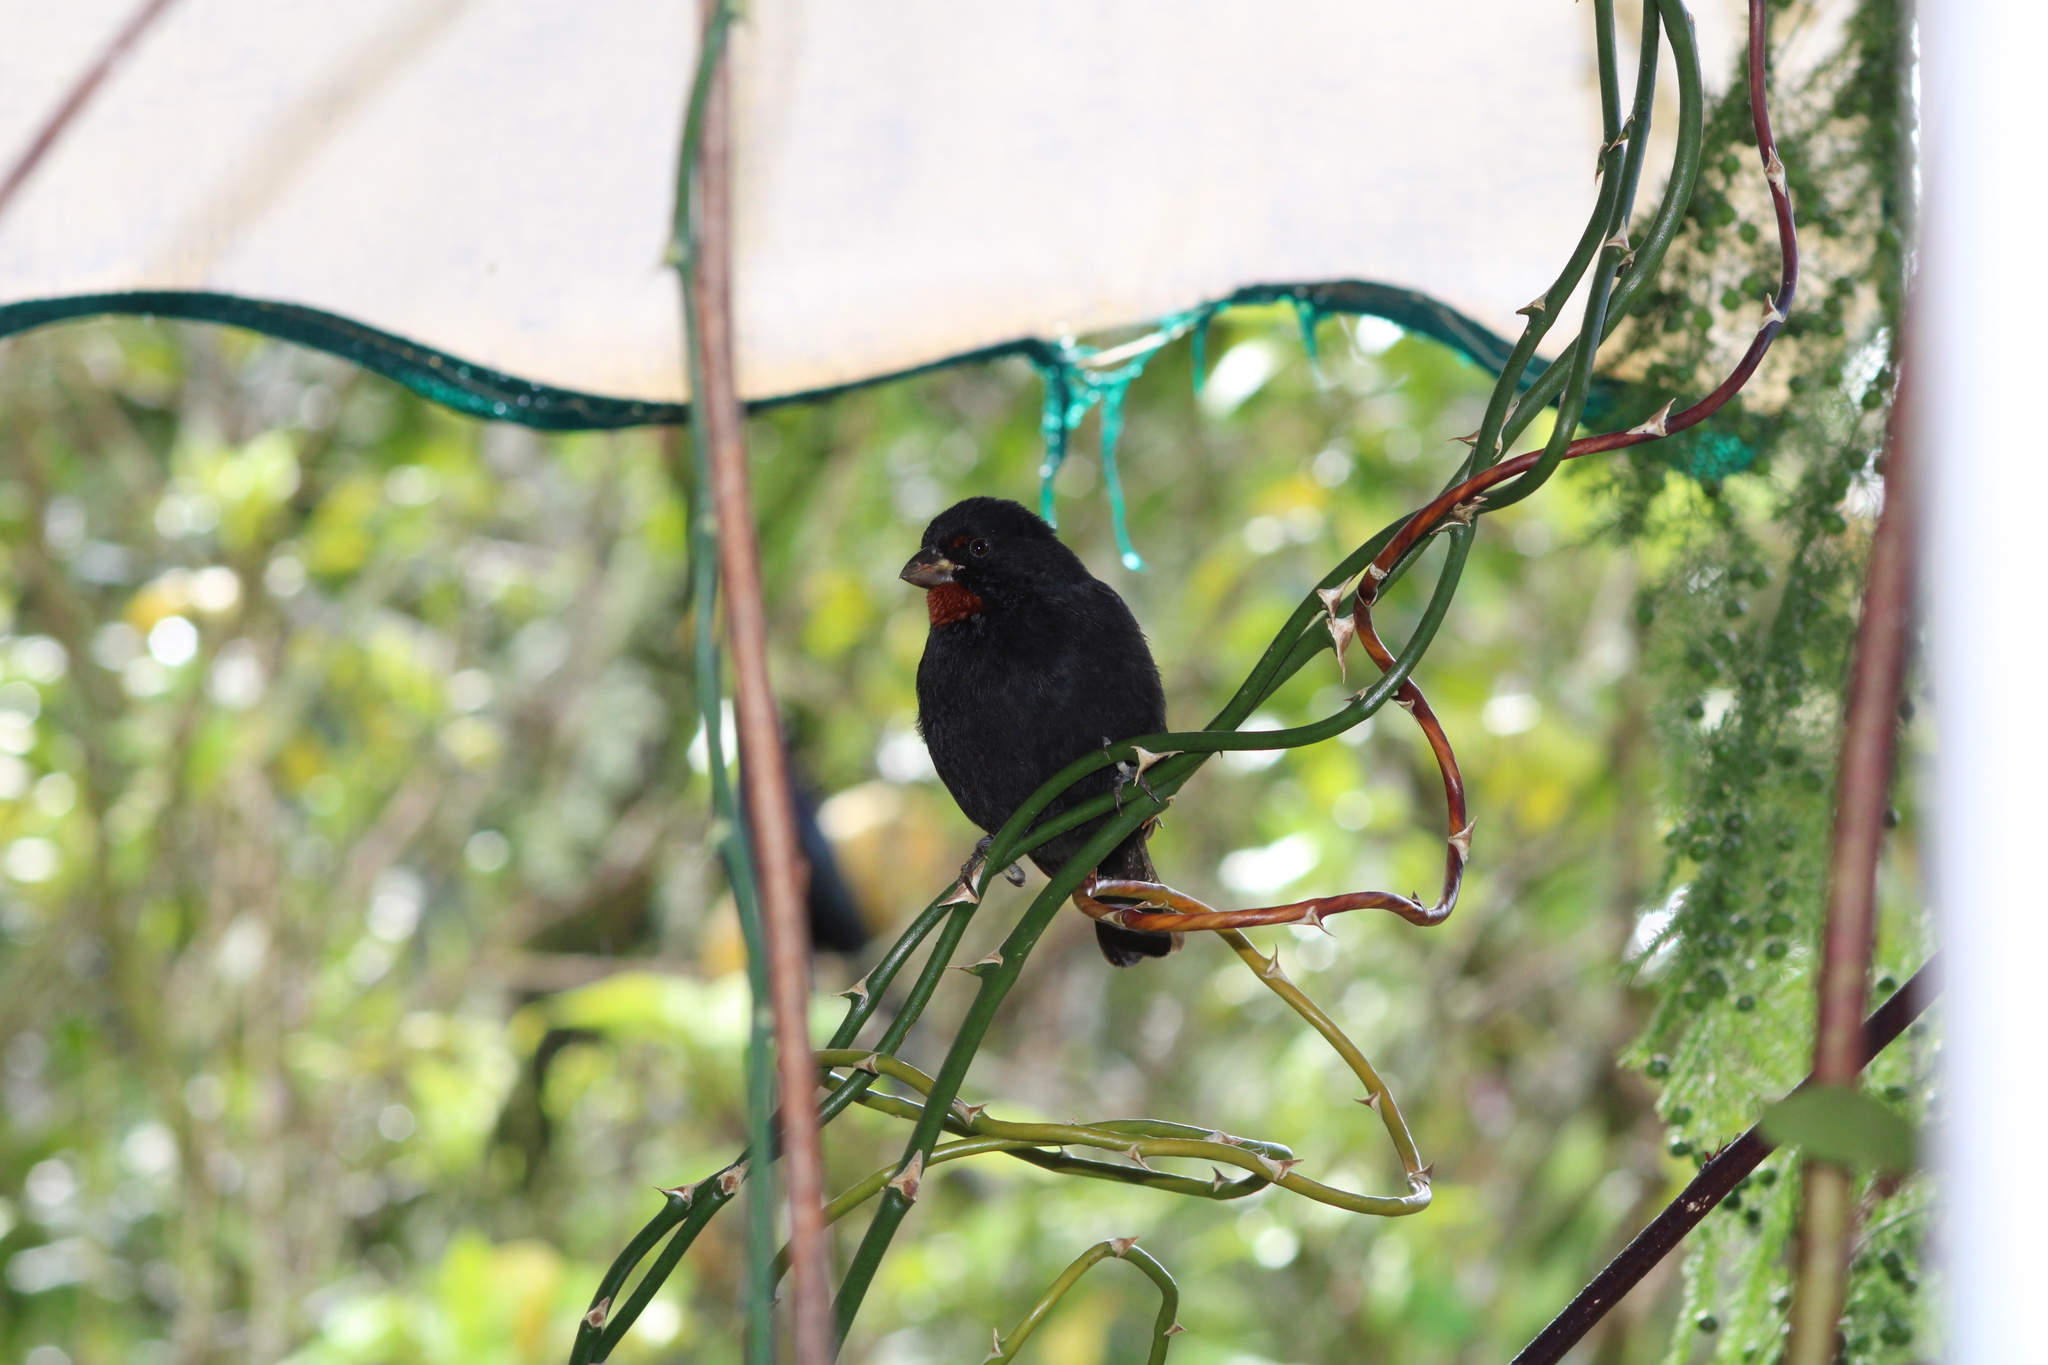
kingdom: Animalia
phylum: Chordata
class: Aves
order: Passeriformes
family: Thraupidae
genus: Loxigilla
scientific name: Loxigilla noctis
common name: Lesser antillean bullfinch
